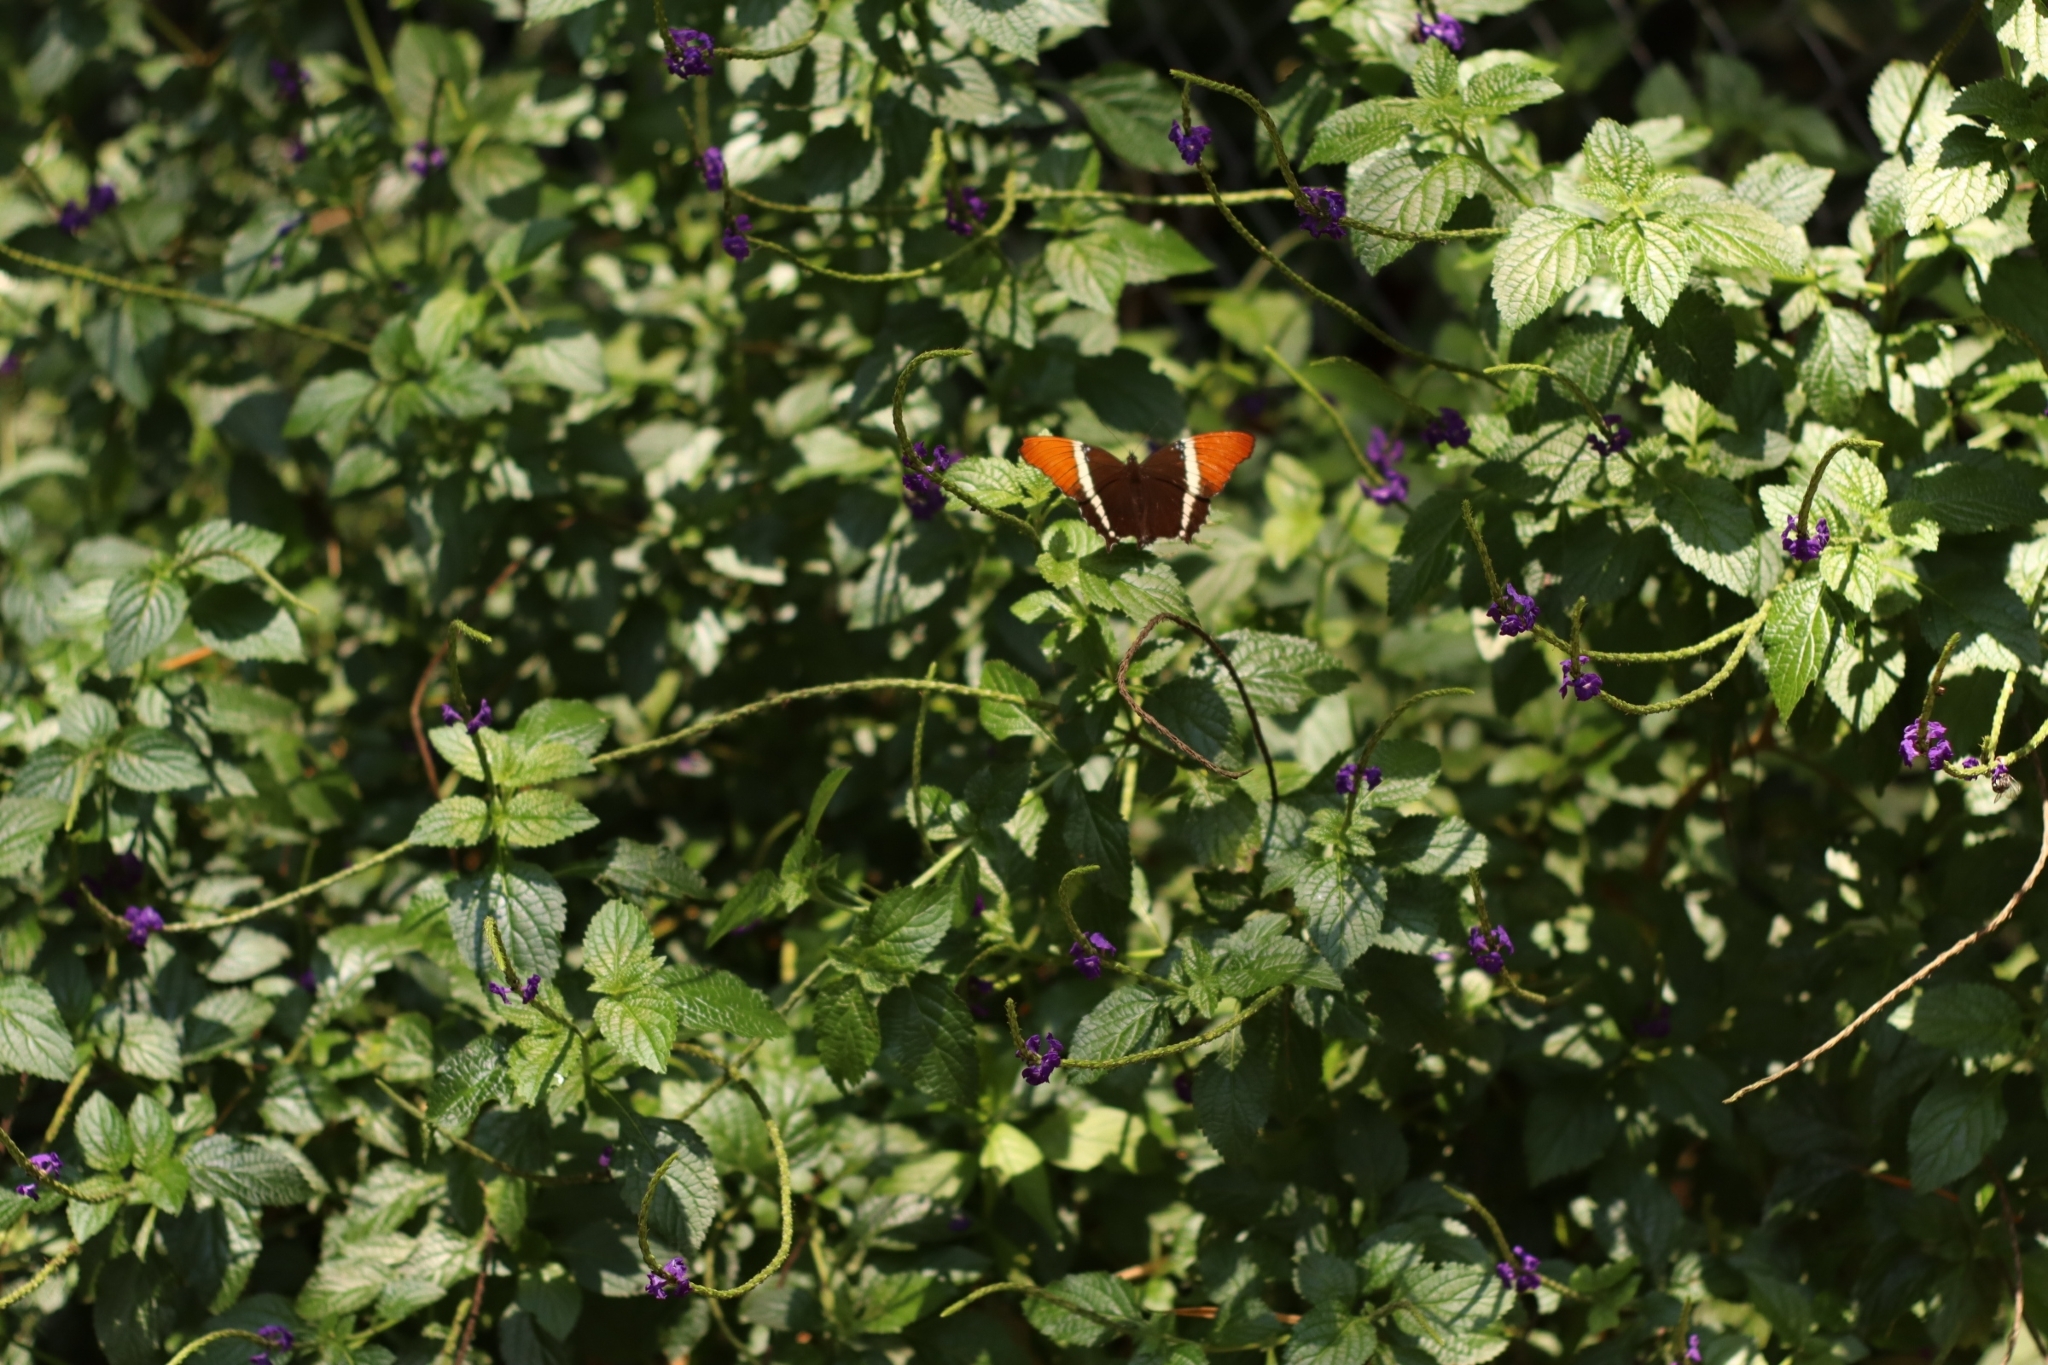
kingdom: Animalia
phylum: Arthropoda
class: Insecta
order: Lepidoptera
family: Nymphalidae
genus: Siproeta
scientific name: Siproeta epaphus
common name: Rusty-tipped page
